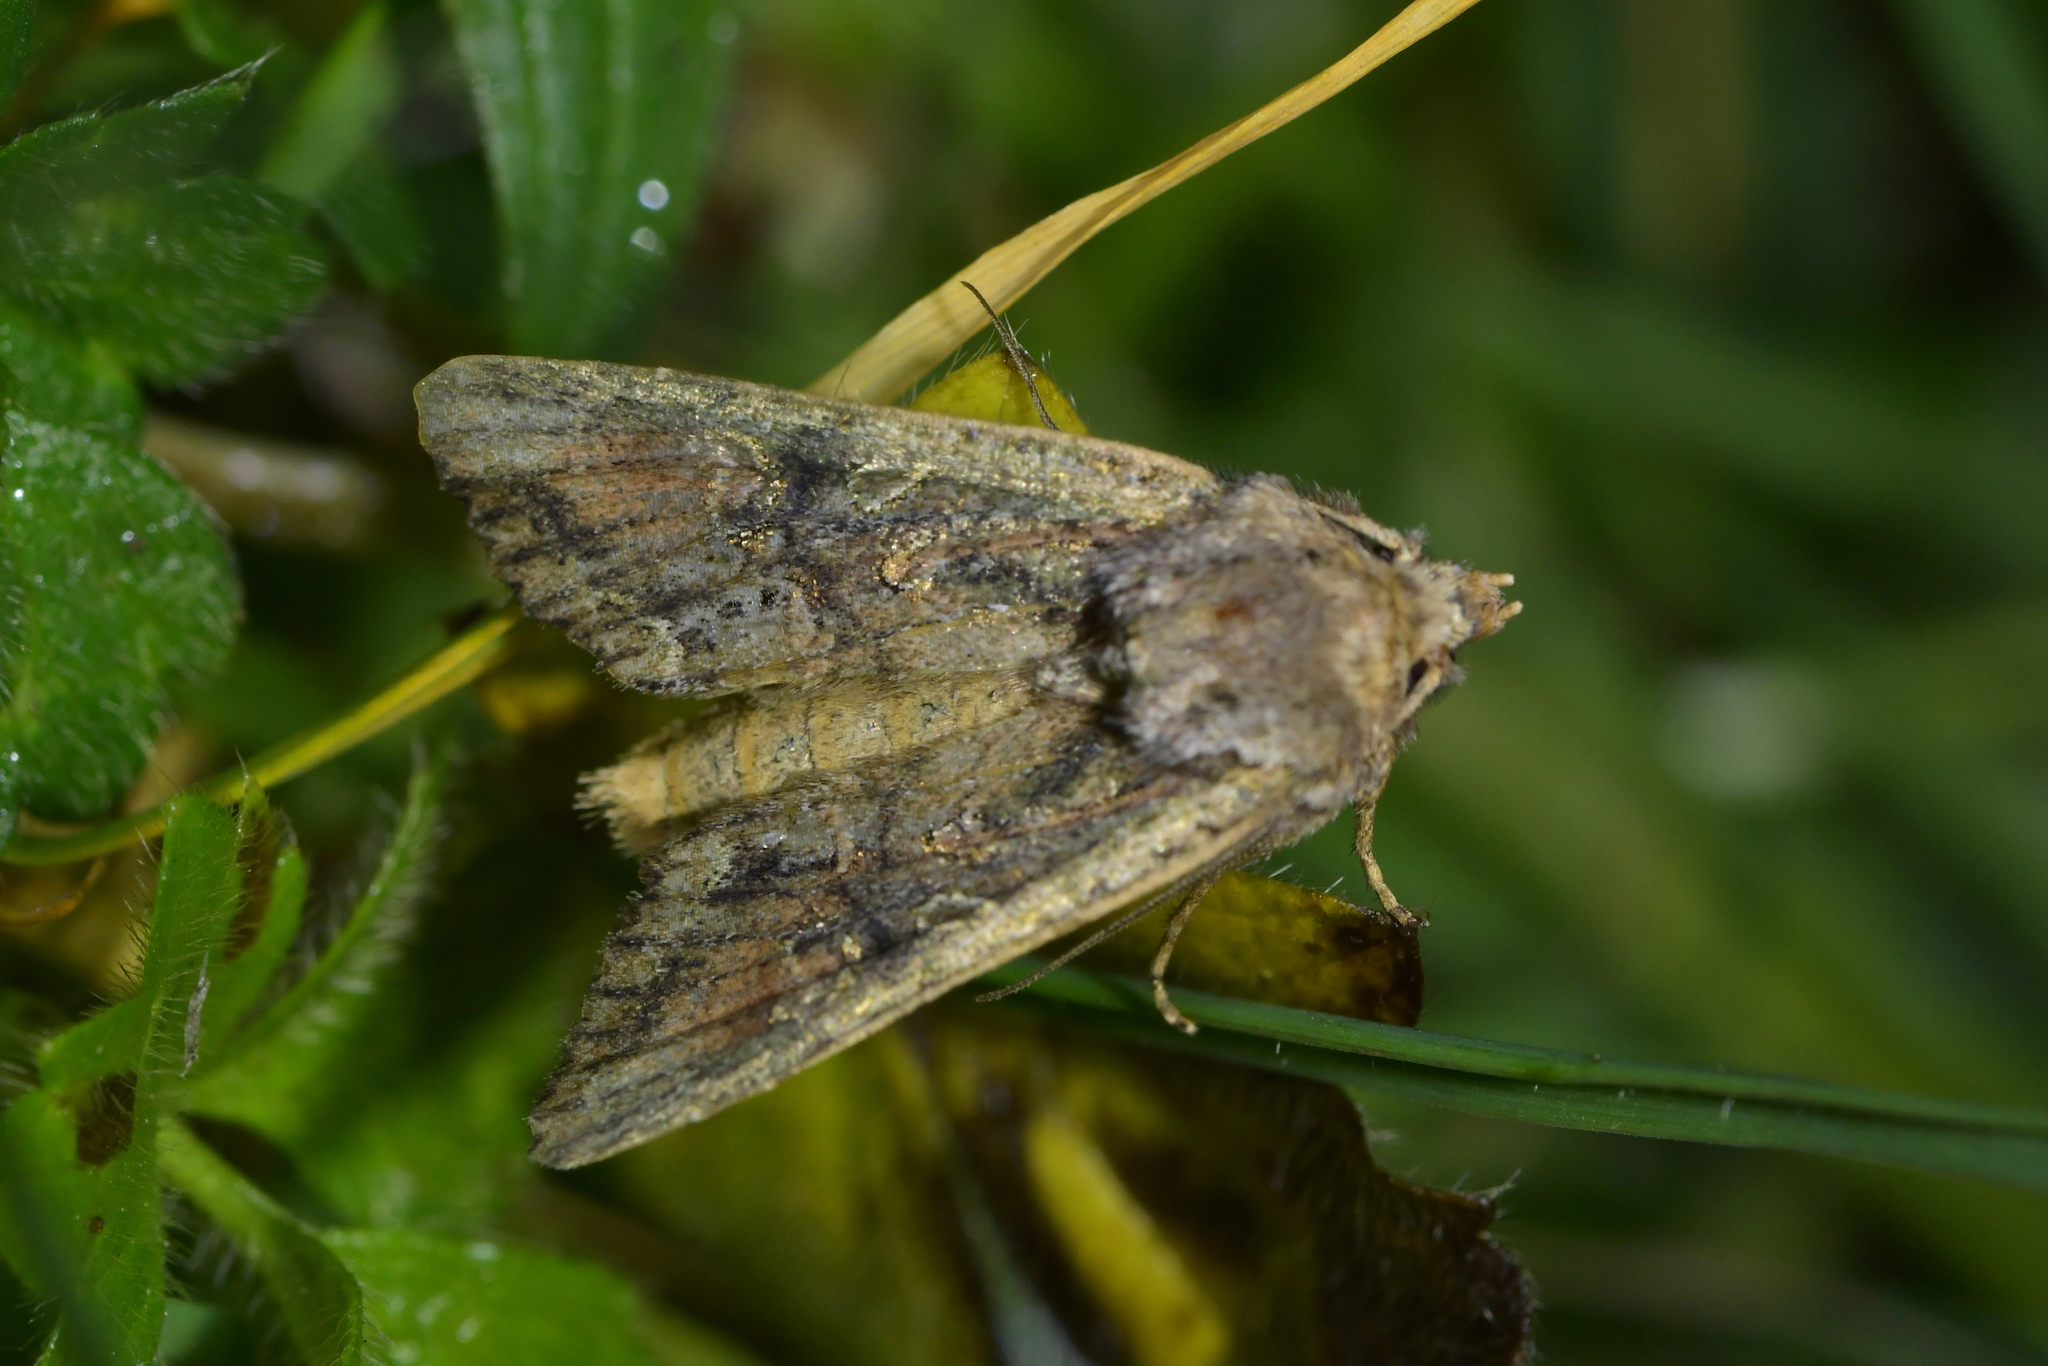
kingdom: Animalia
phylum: Arthropoda
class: Insecta
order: Lepidoptera
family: Noctuidae
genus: Ichneutica
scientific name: Ichneutica mutans
